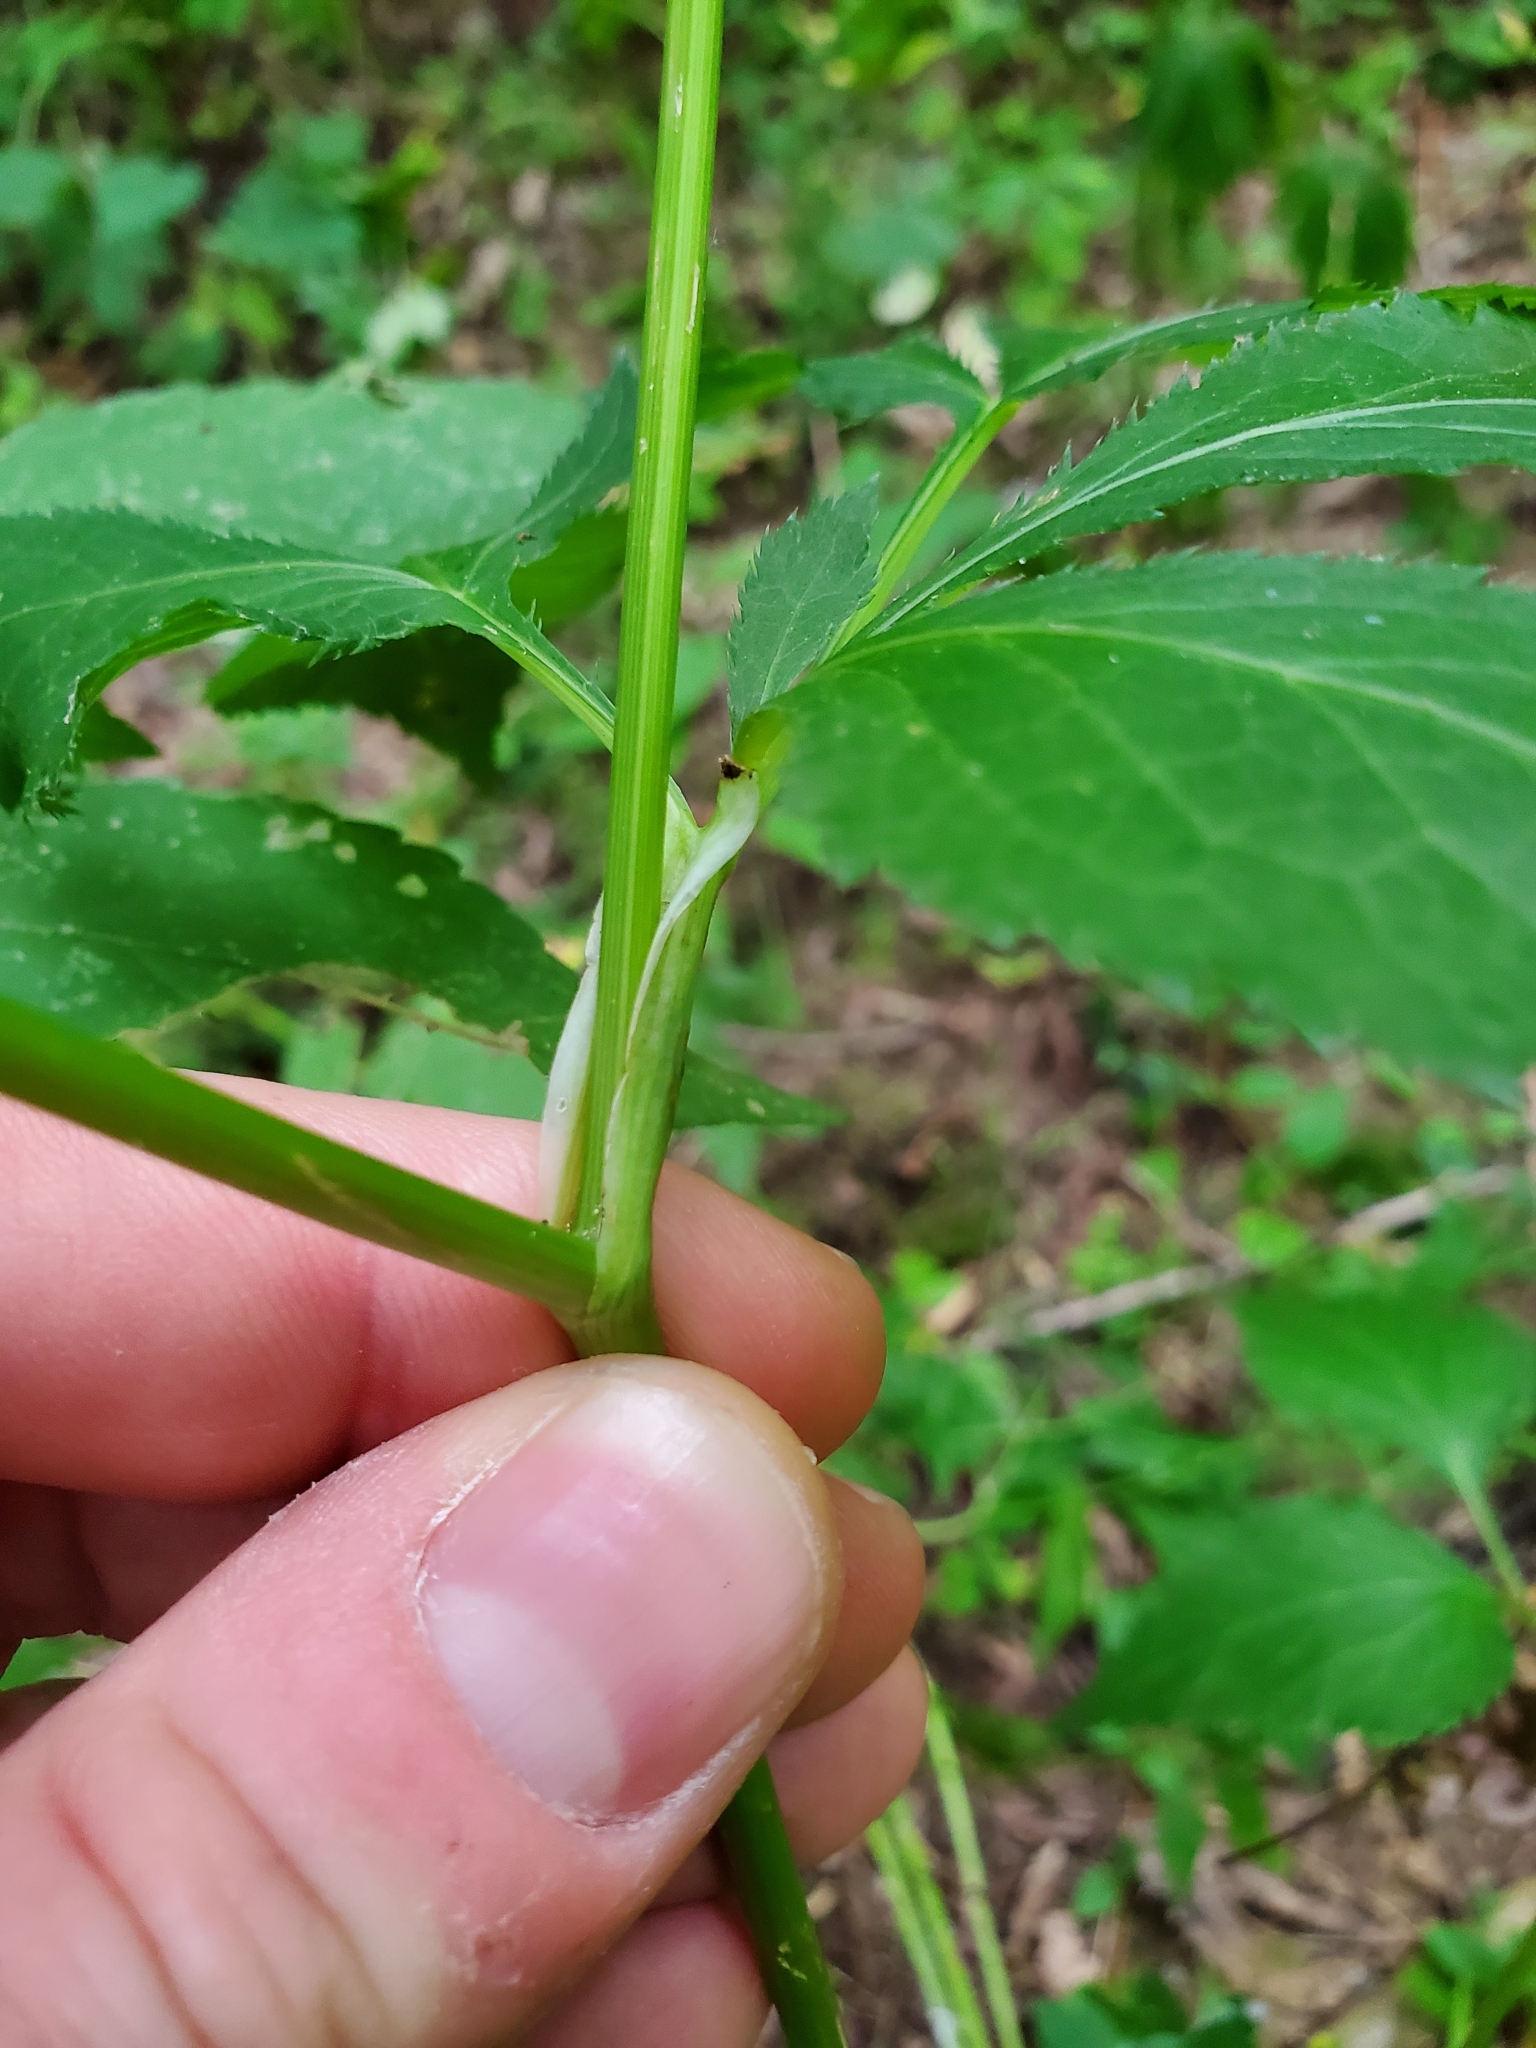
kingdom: Plantae
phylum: Tracheophyta
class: Magnoliopsida
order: Apiales
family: Apiaceae
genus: Cryptotaenia
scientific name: Cryptotaenia canadensis
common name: Honewort
